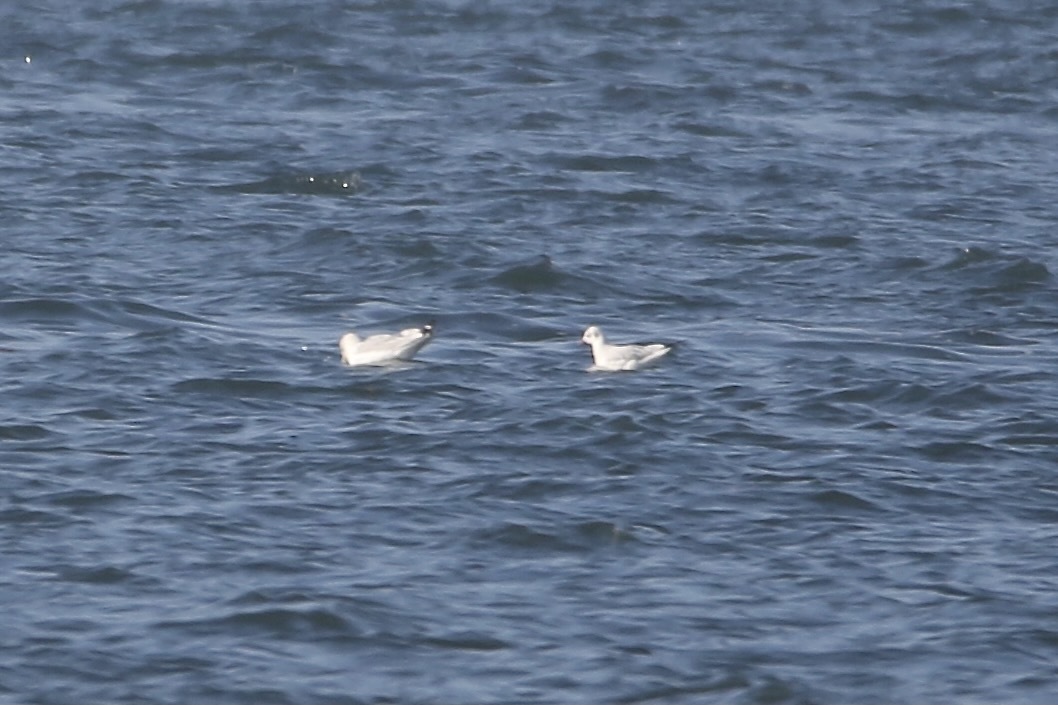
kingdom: Animalia
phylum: Chordata
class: Aves
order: Charadriiformes
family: Laridae
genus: Chroicocephalus
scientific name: Chroicocephalus ridibundus
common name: Black-headed gull
